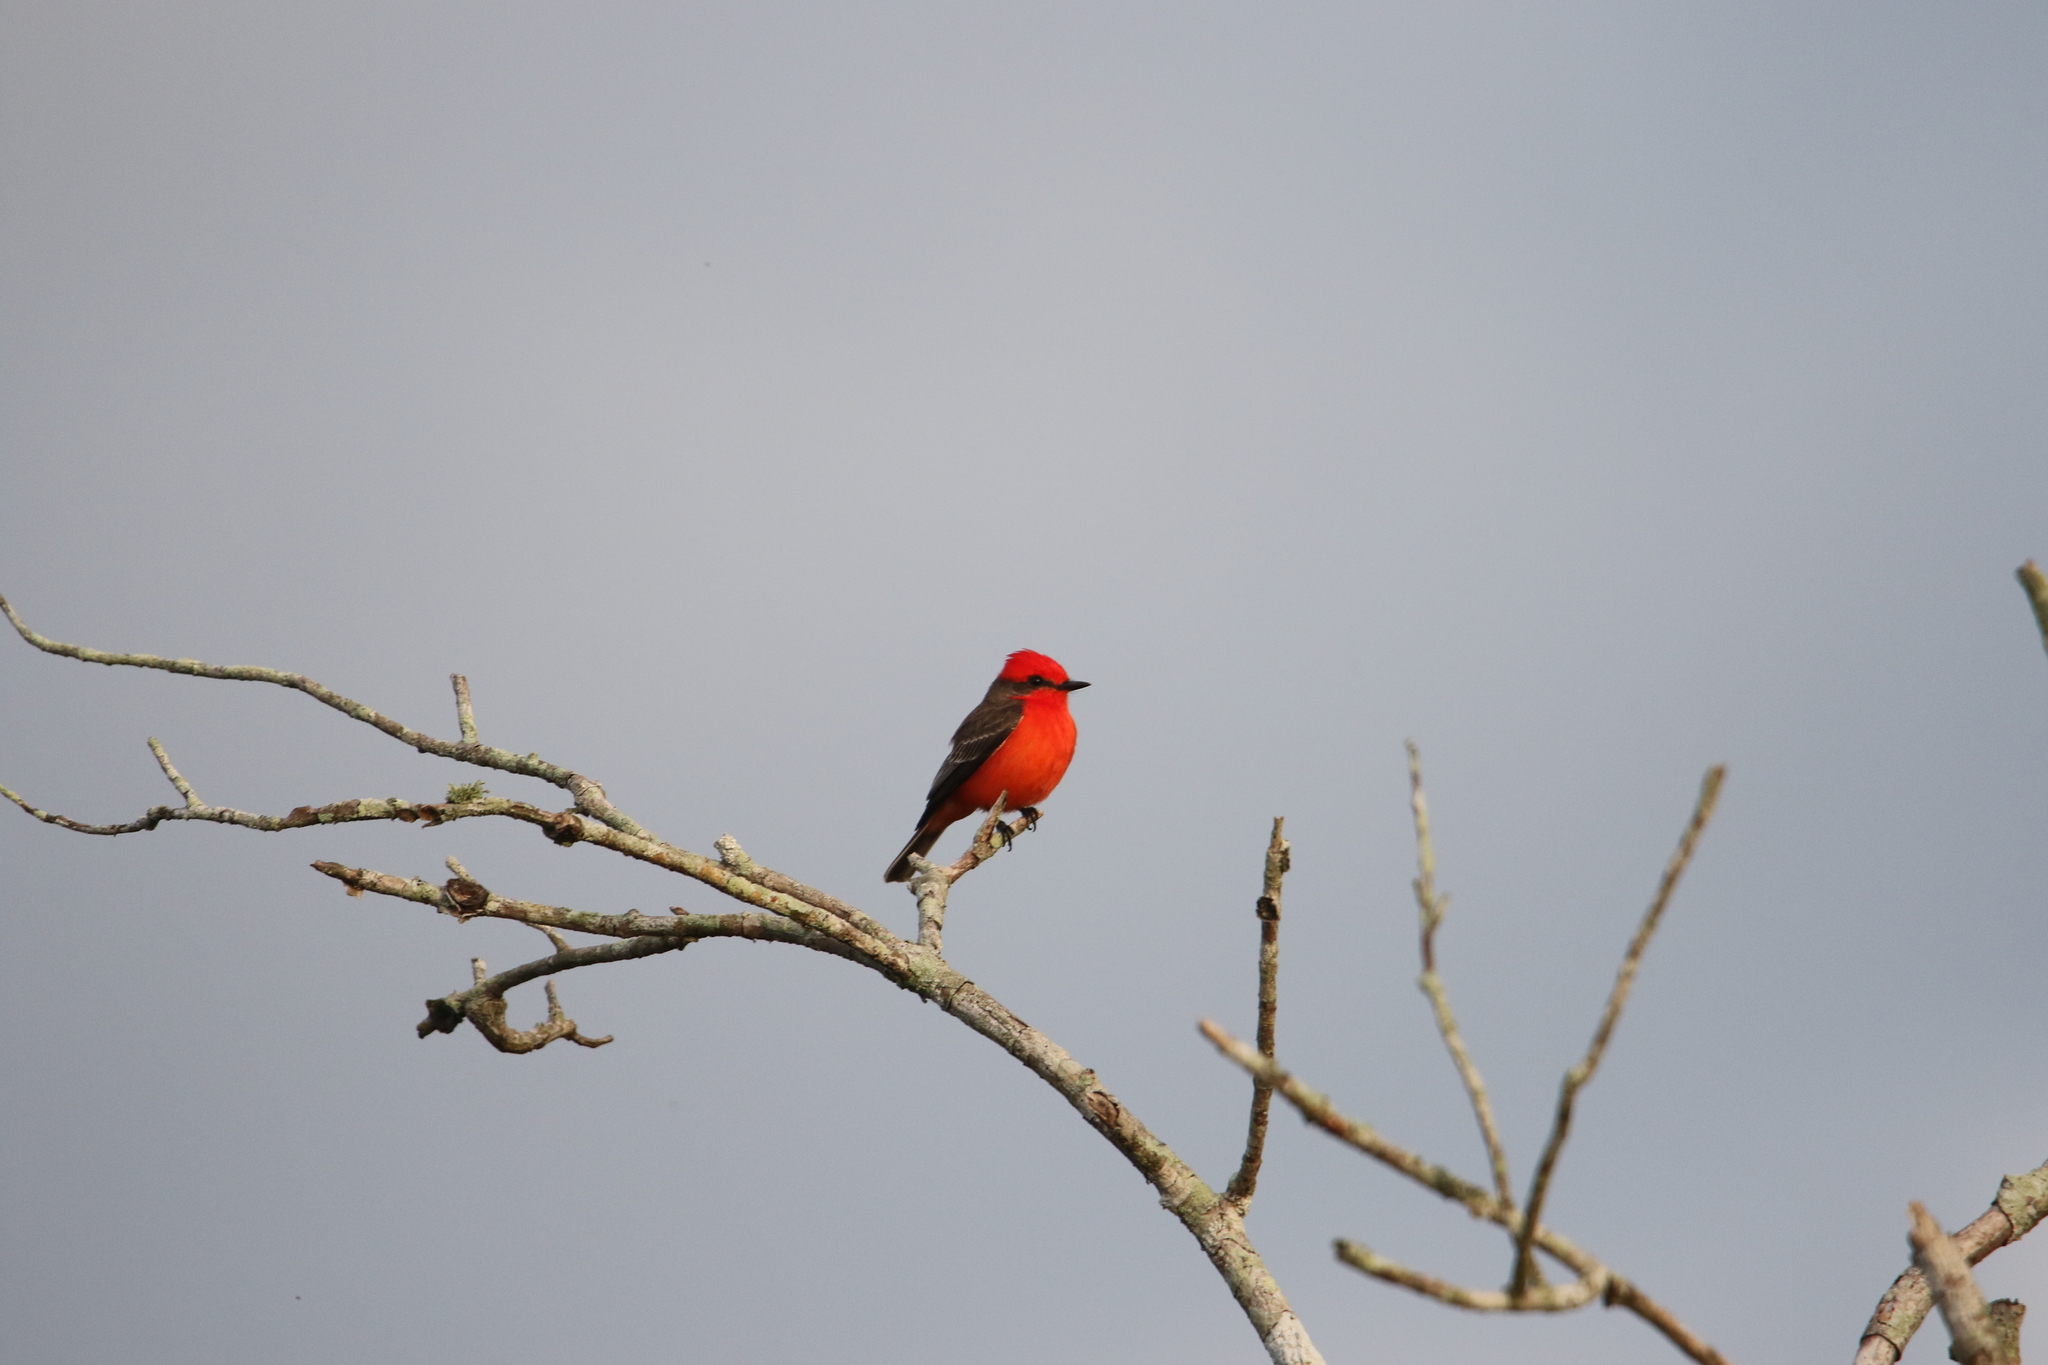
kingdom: Animalia
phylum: Chordata
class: Aves
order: Passeriformes
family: Tyrannidae
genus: Pyrocephalus
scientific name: Pyrocephalus rubinus
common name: Vermilion flycatcher
